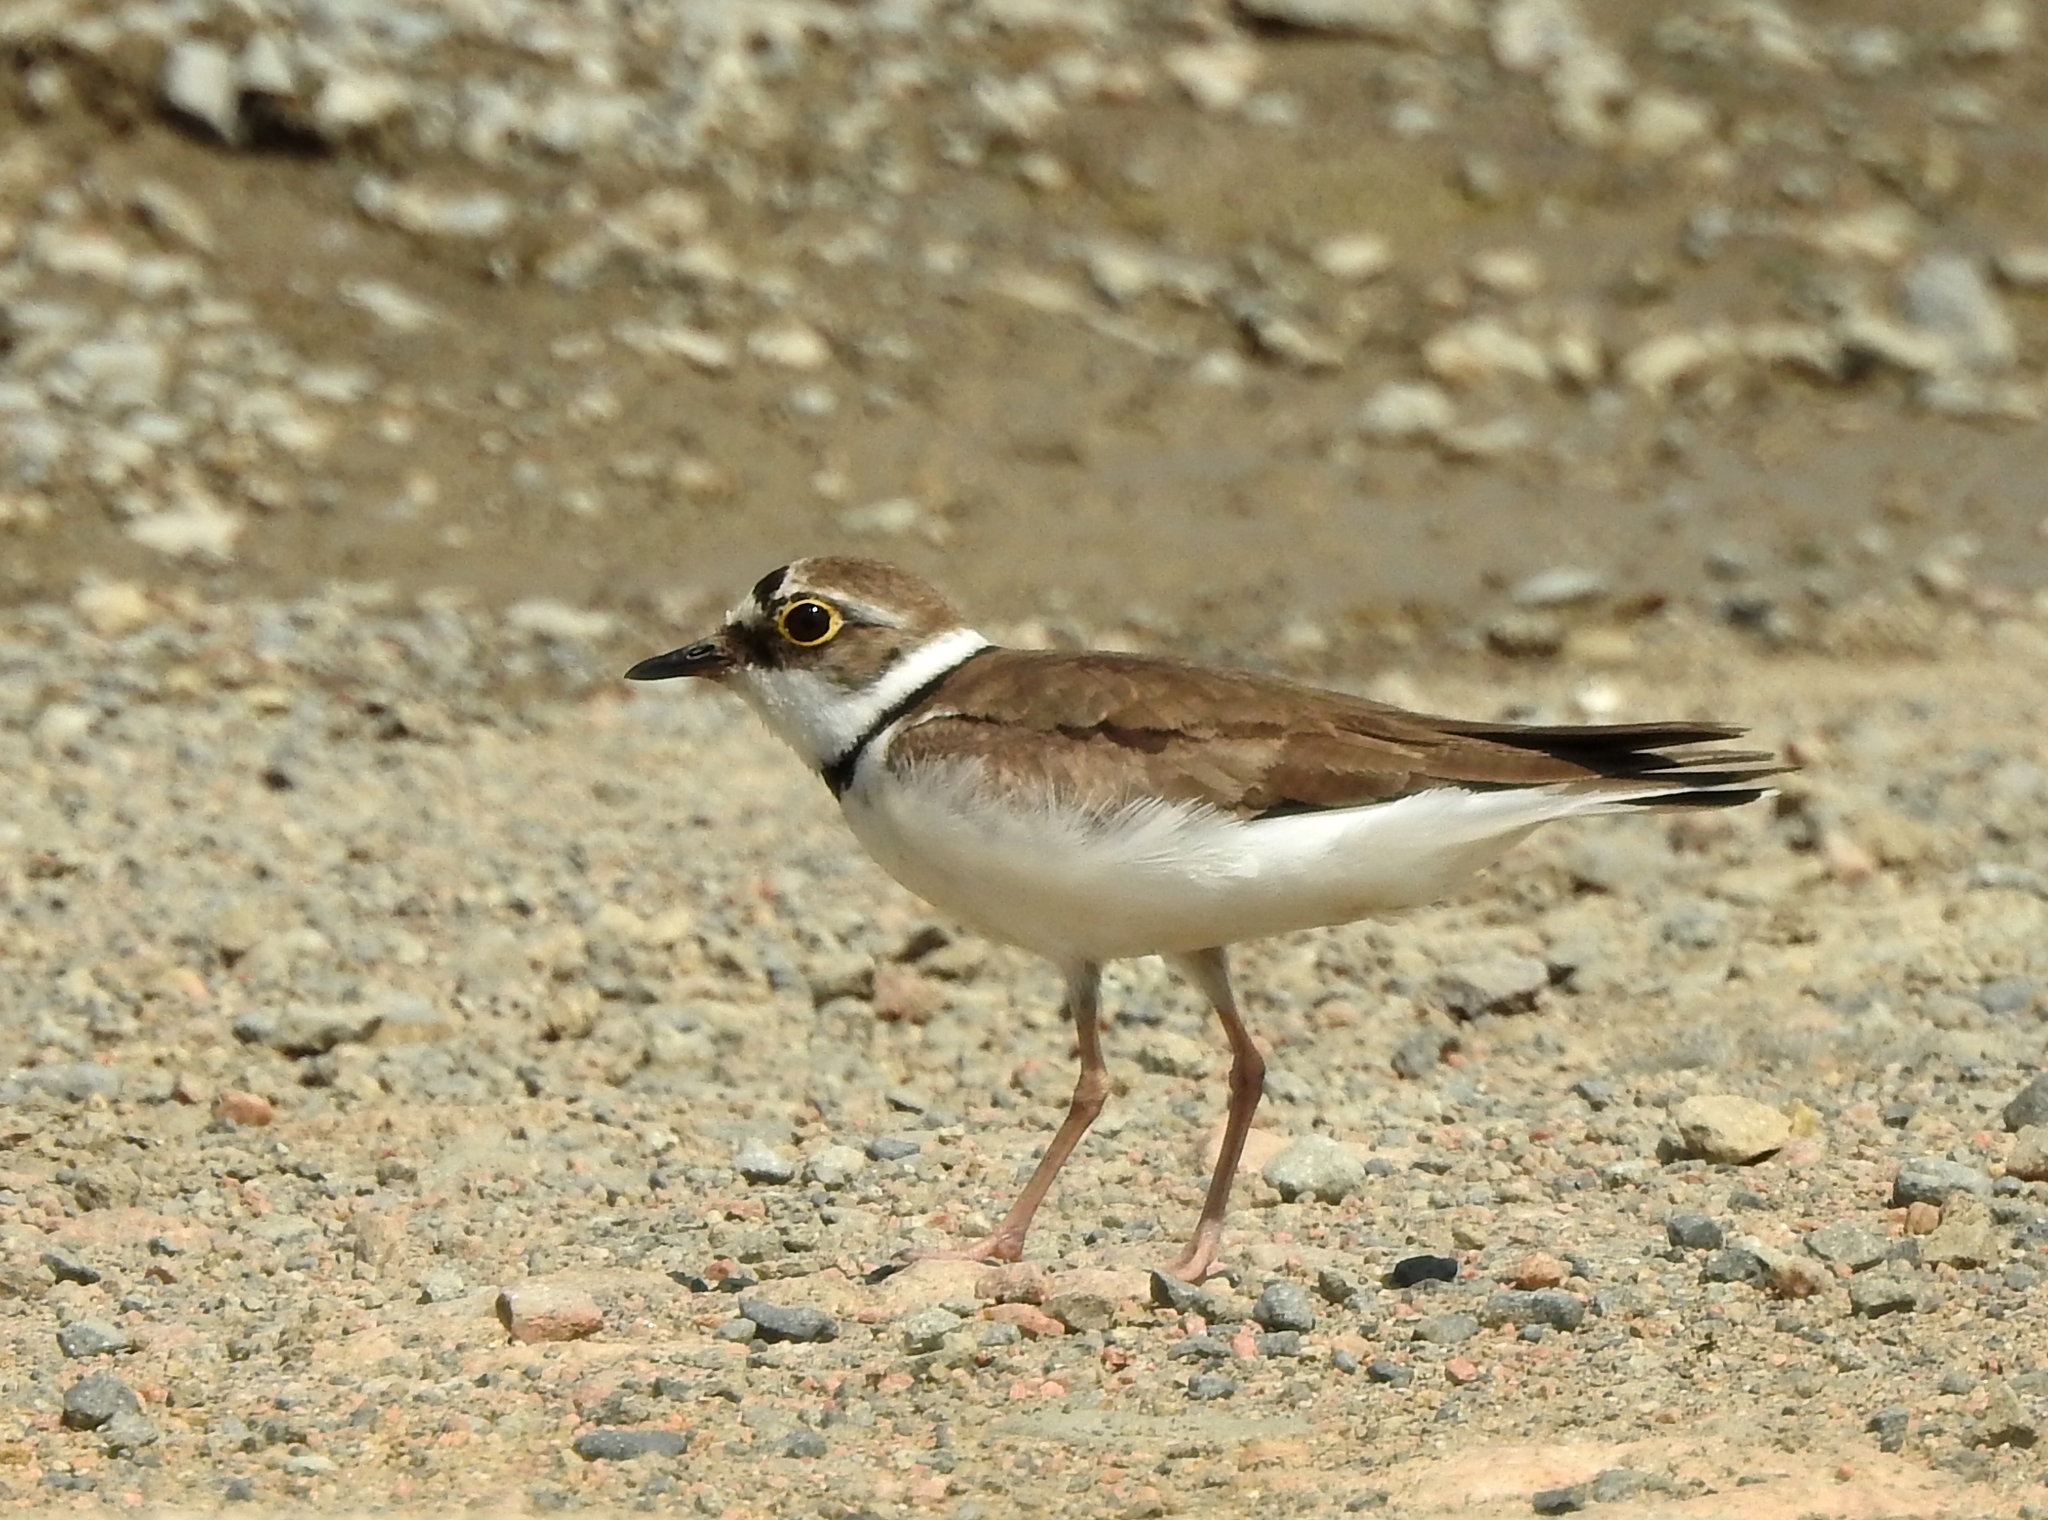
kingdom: Animalia
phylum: Chordata
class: Aves
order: Charadriiformes
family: Charadriidae
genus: Charadrius
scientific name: Charadrius dubius
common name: Little ringed plover
